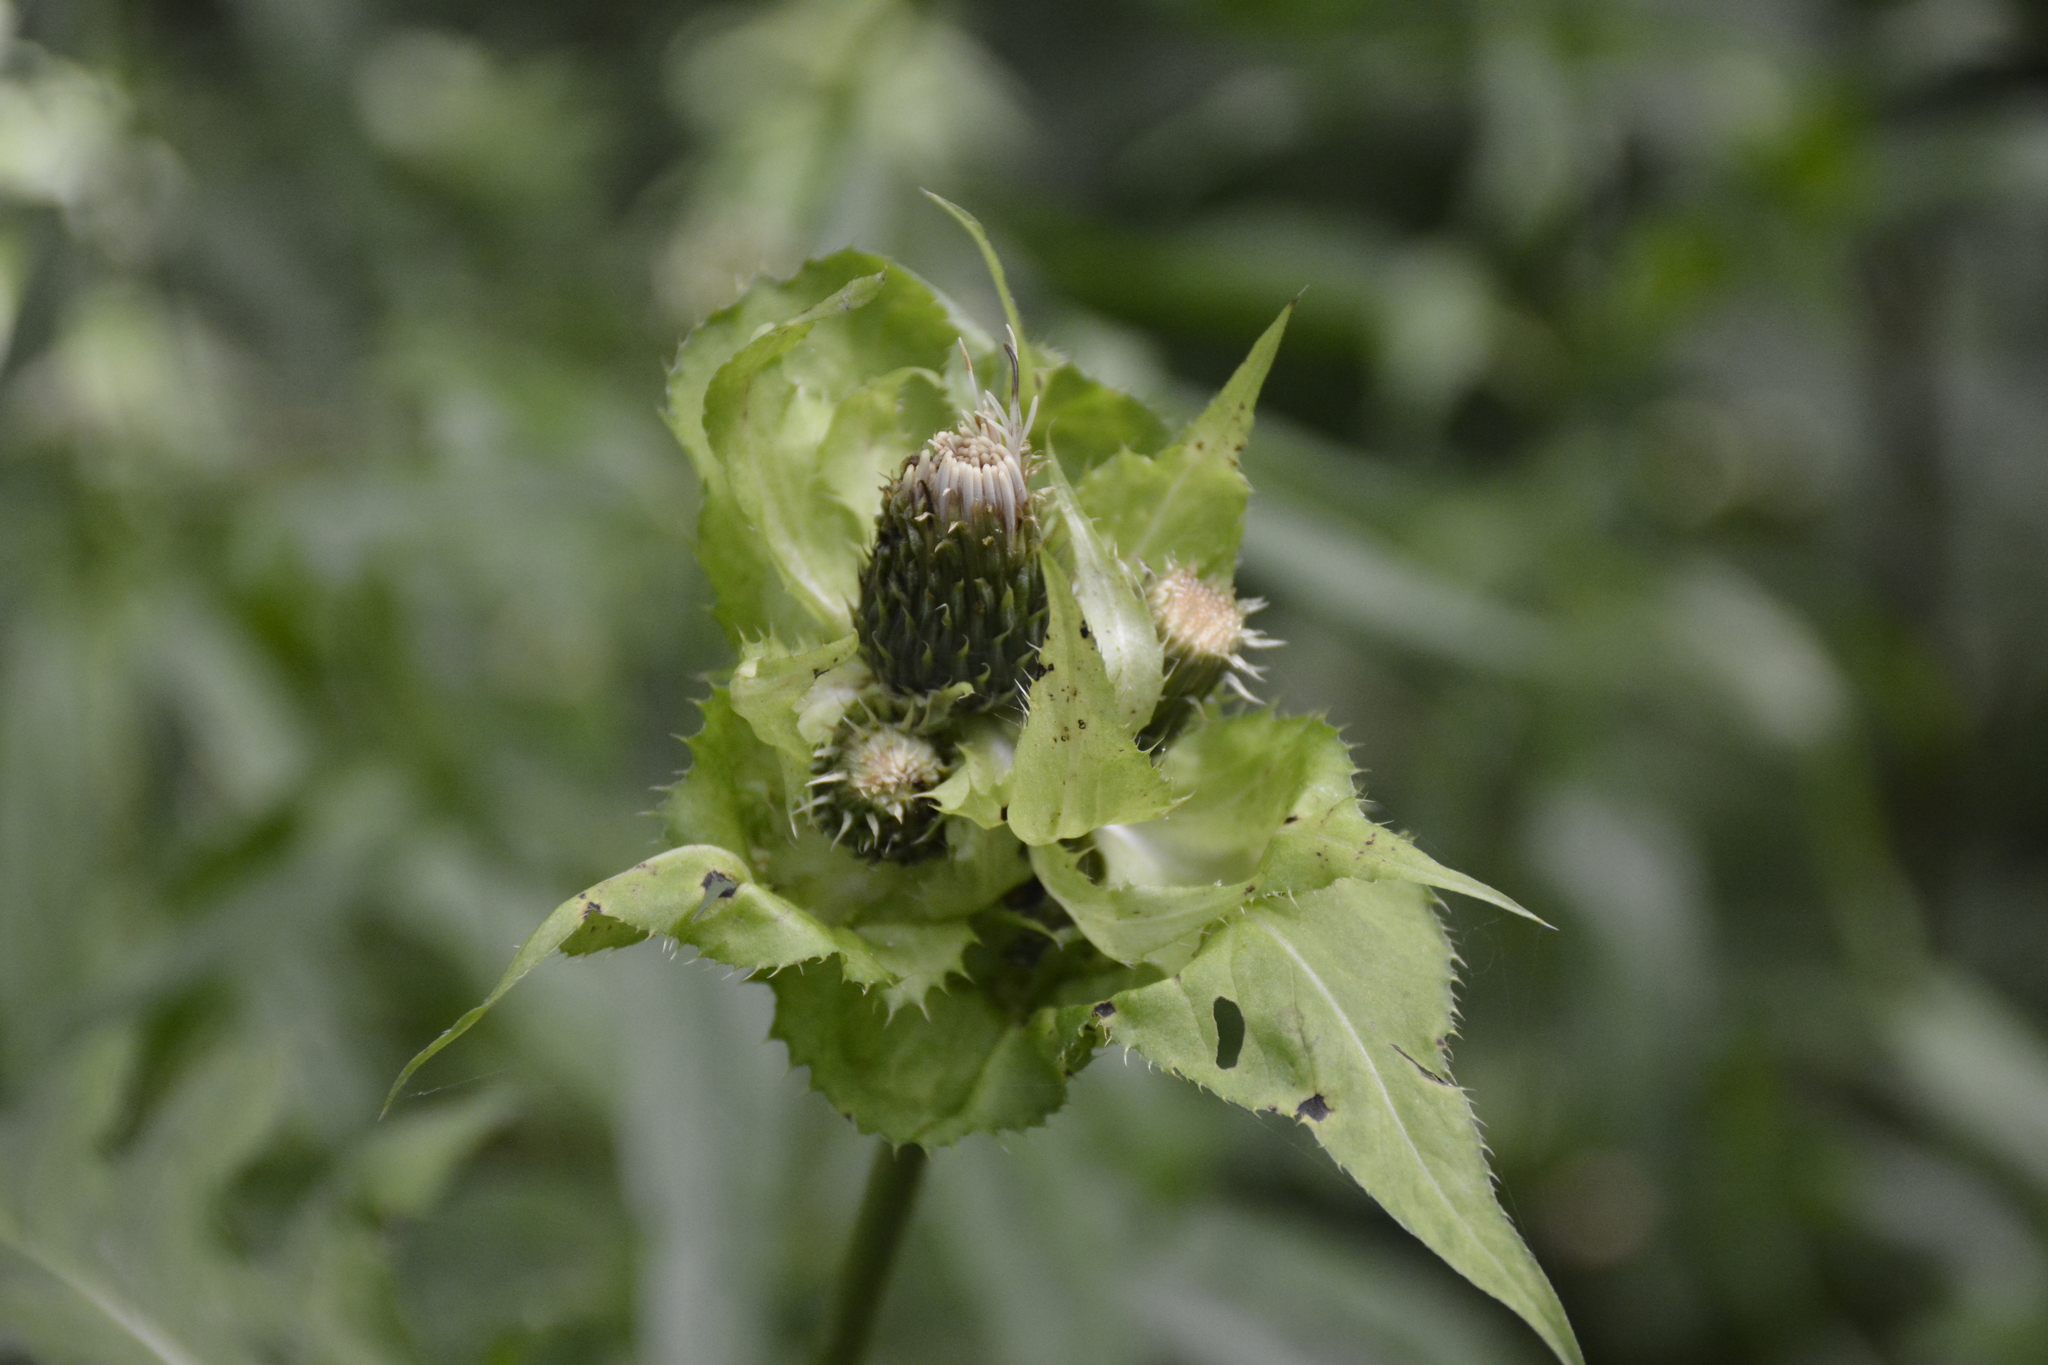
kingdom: Plantae
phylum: Tracheophyta
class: Magnoliopsida
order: Asterales
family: Asteraceae
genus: Cirsium
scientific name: Cirsium oleraceum
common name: Cabbage thistle
